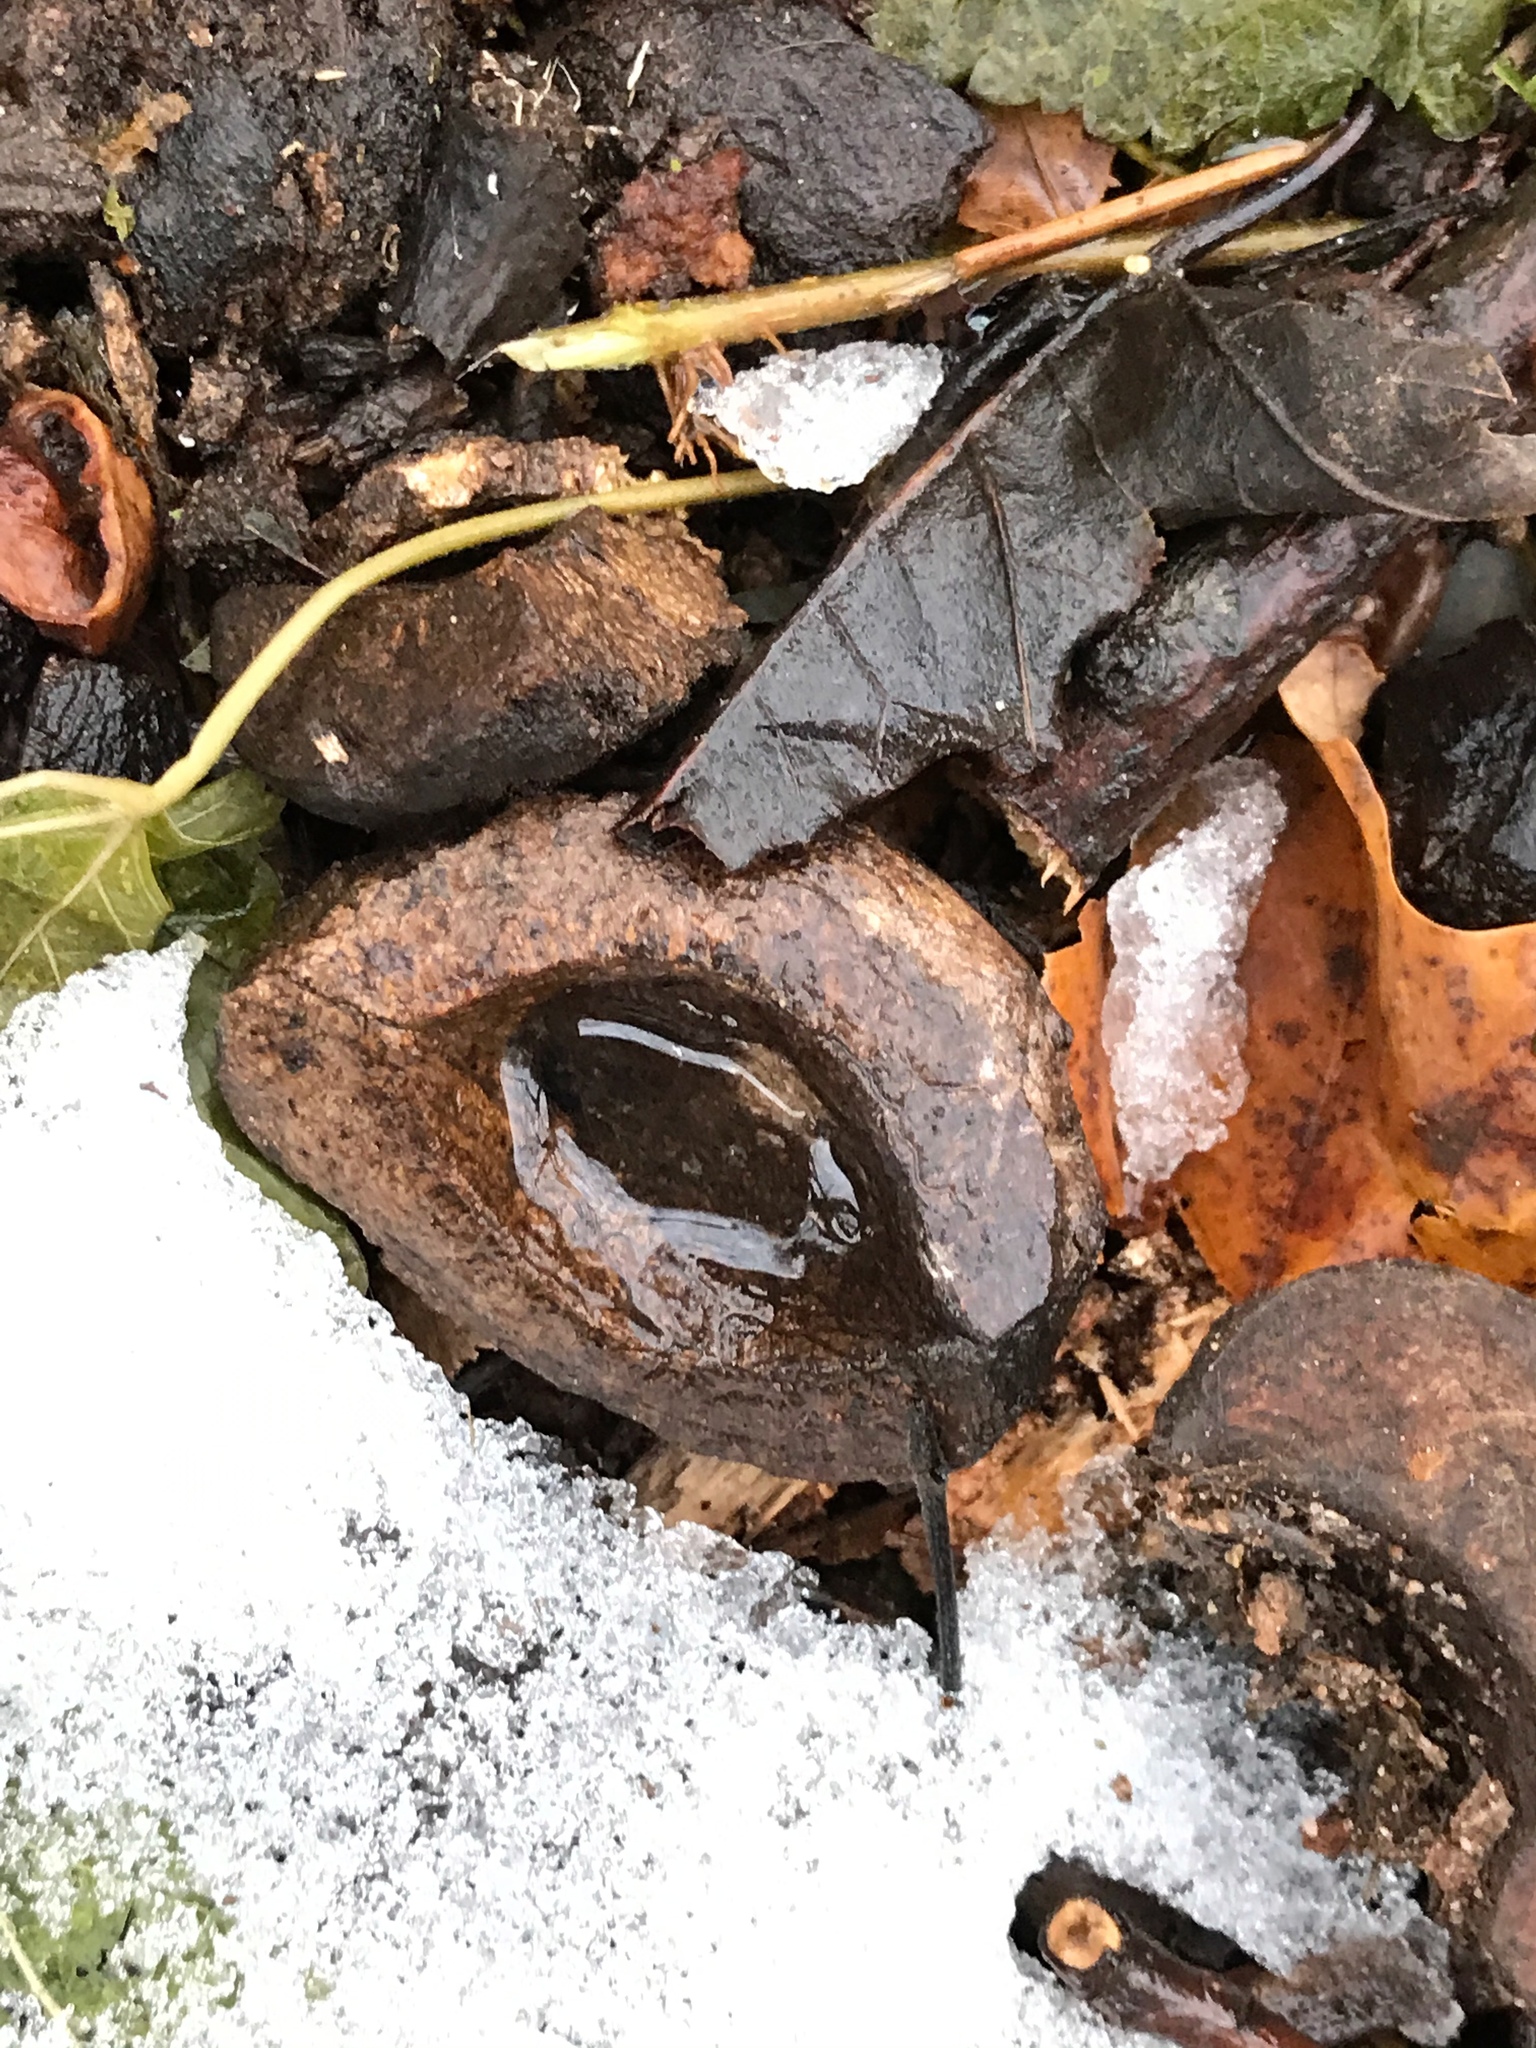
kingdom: Plantae
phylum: Tracheophyta
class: Magnoliopsida
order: Fagales
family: Juglandaceae
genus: Carya
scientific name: Carya ovata
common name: Shagbark hickory
